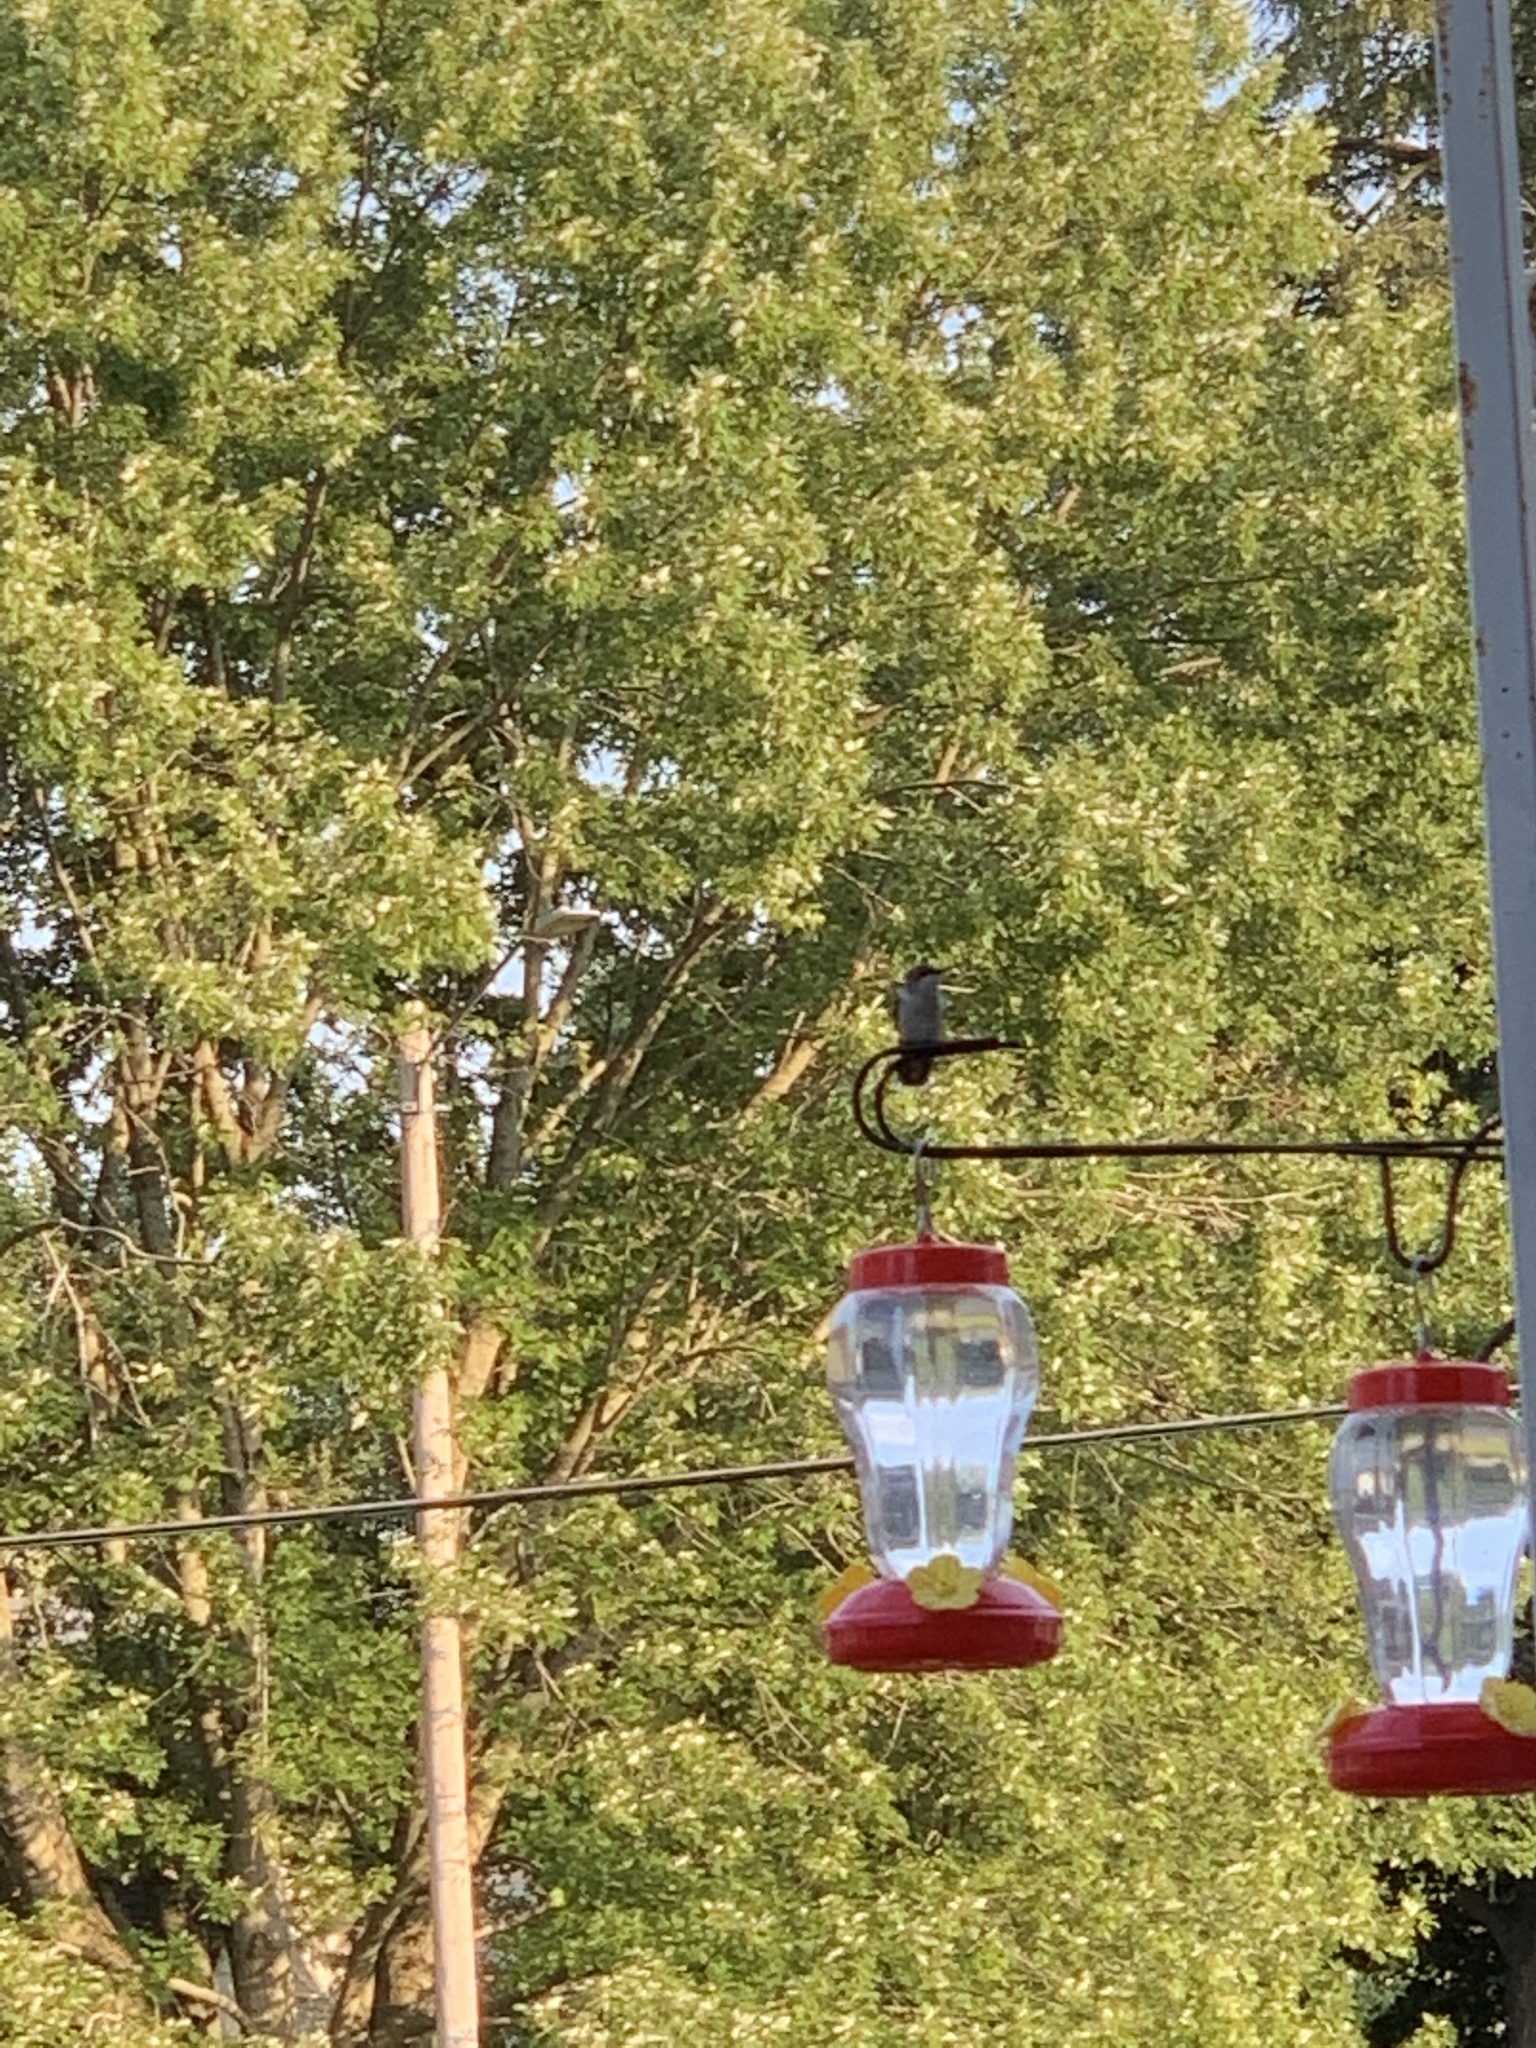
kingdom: Animalia
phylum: Chordata
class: Aves
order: Apodiformes
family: Trochilidae
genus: Archilochus
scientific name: Archilochus colubris
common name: Ruby-throated hummingbird
